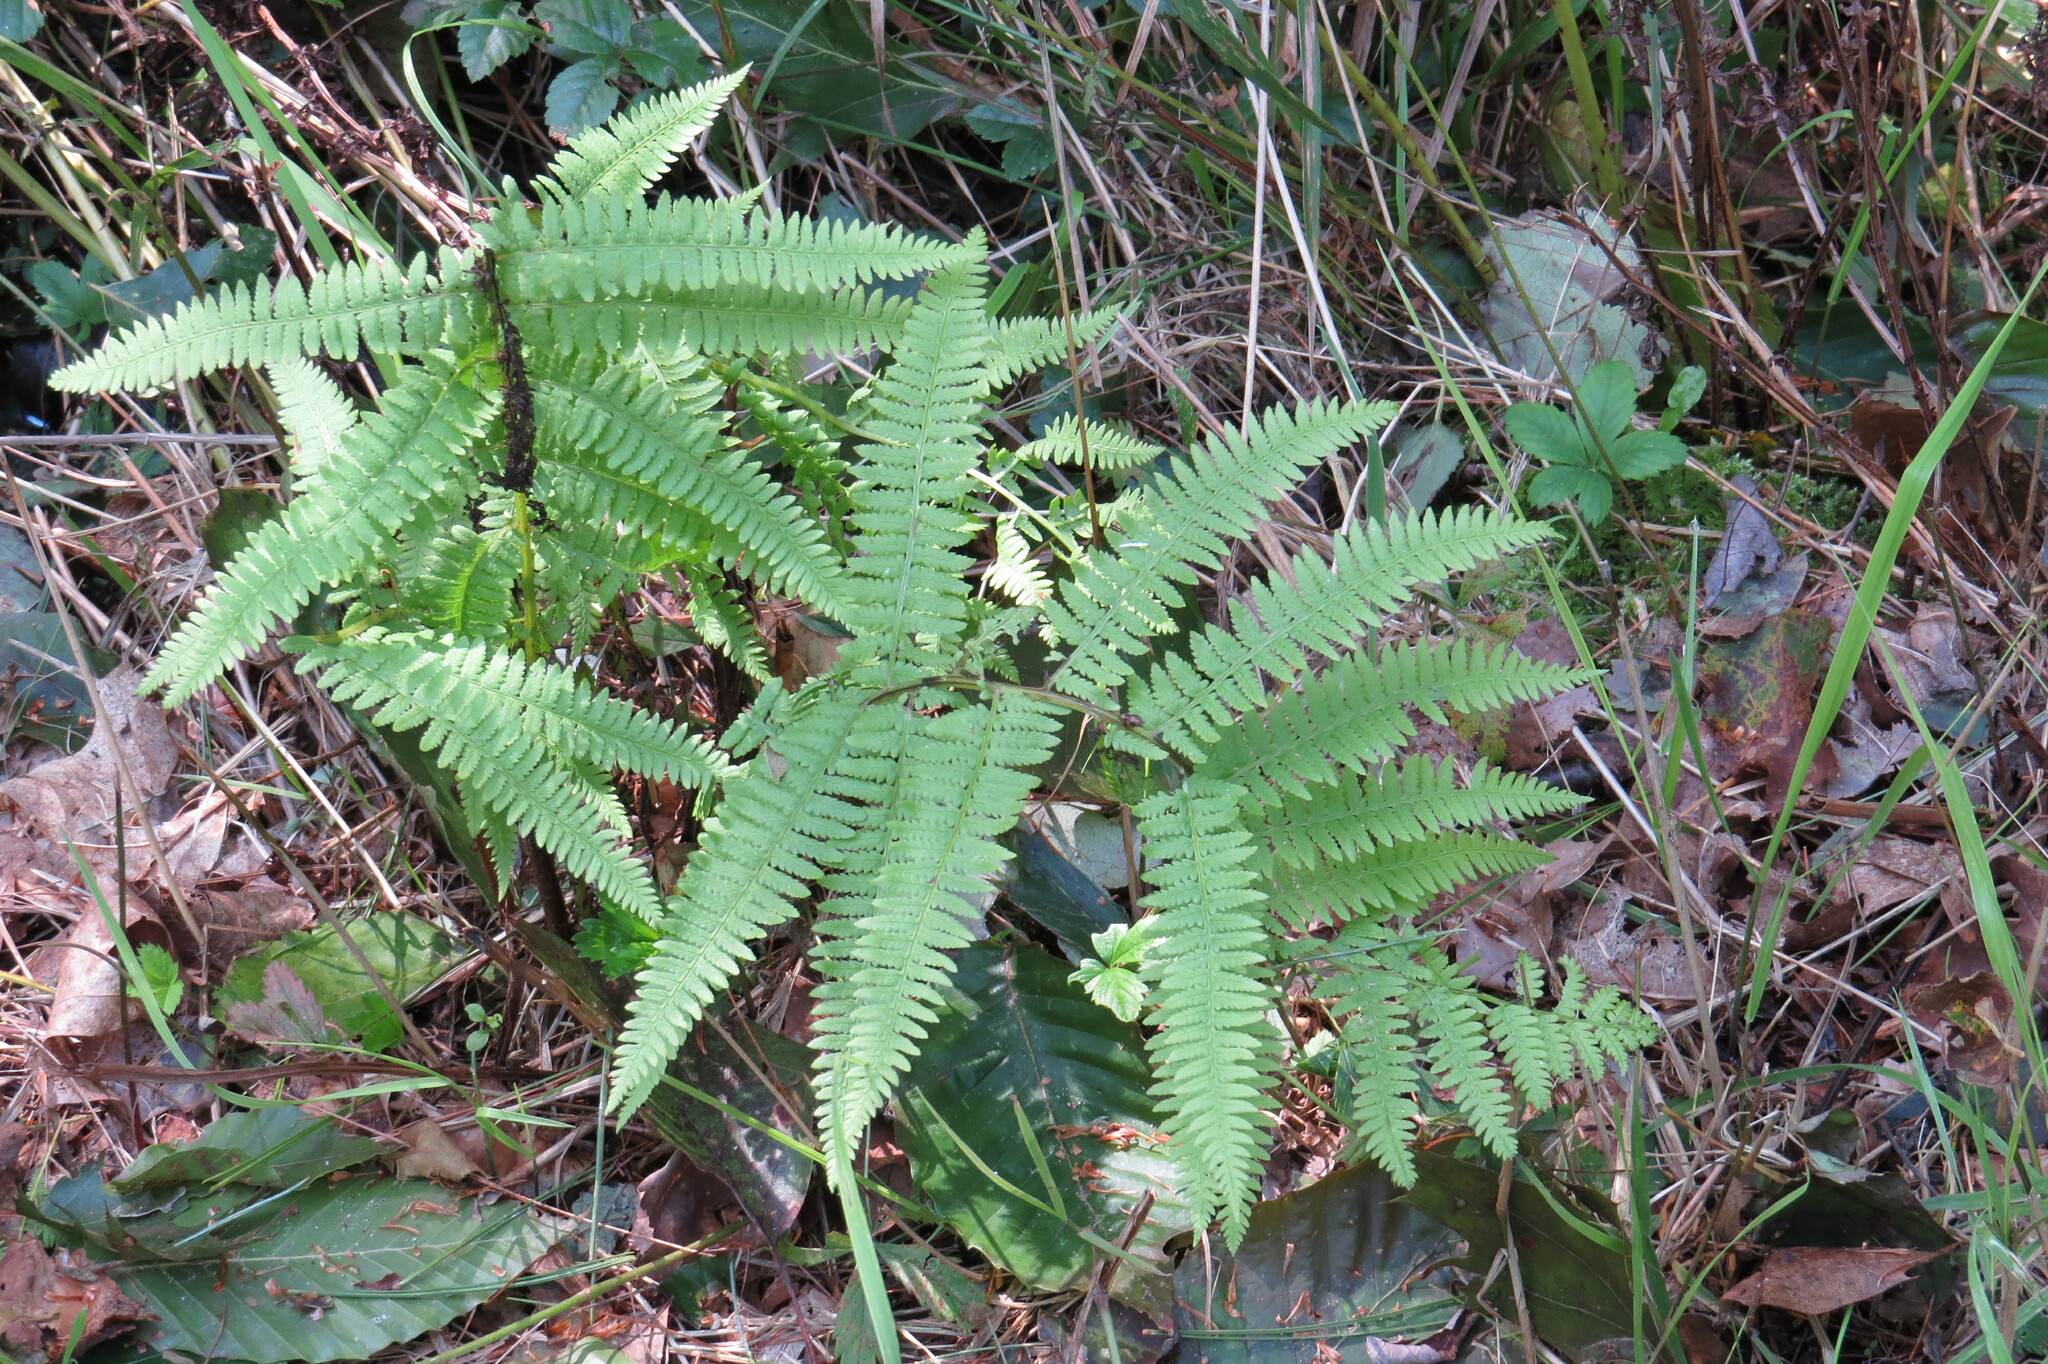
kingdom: Plantae
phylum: Tracheophyta
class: Polypodiopsida
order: Polypodiales
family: Athyriaceae
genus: Athyrium
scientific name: Athyrium angustum
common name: Northern lady fern
